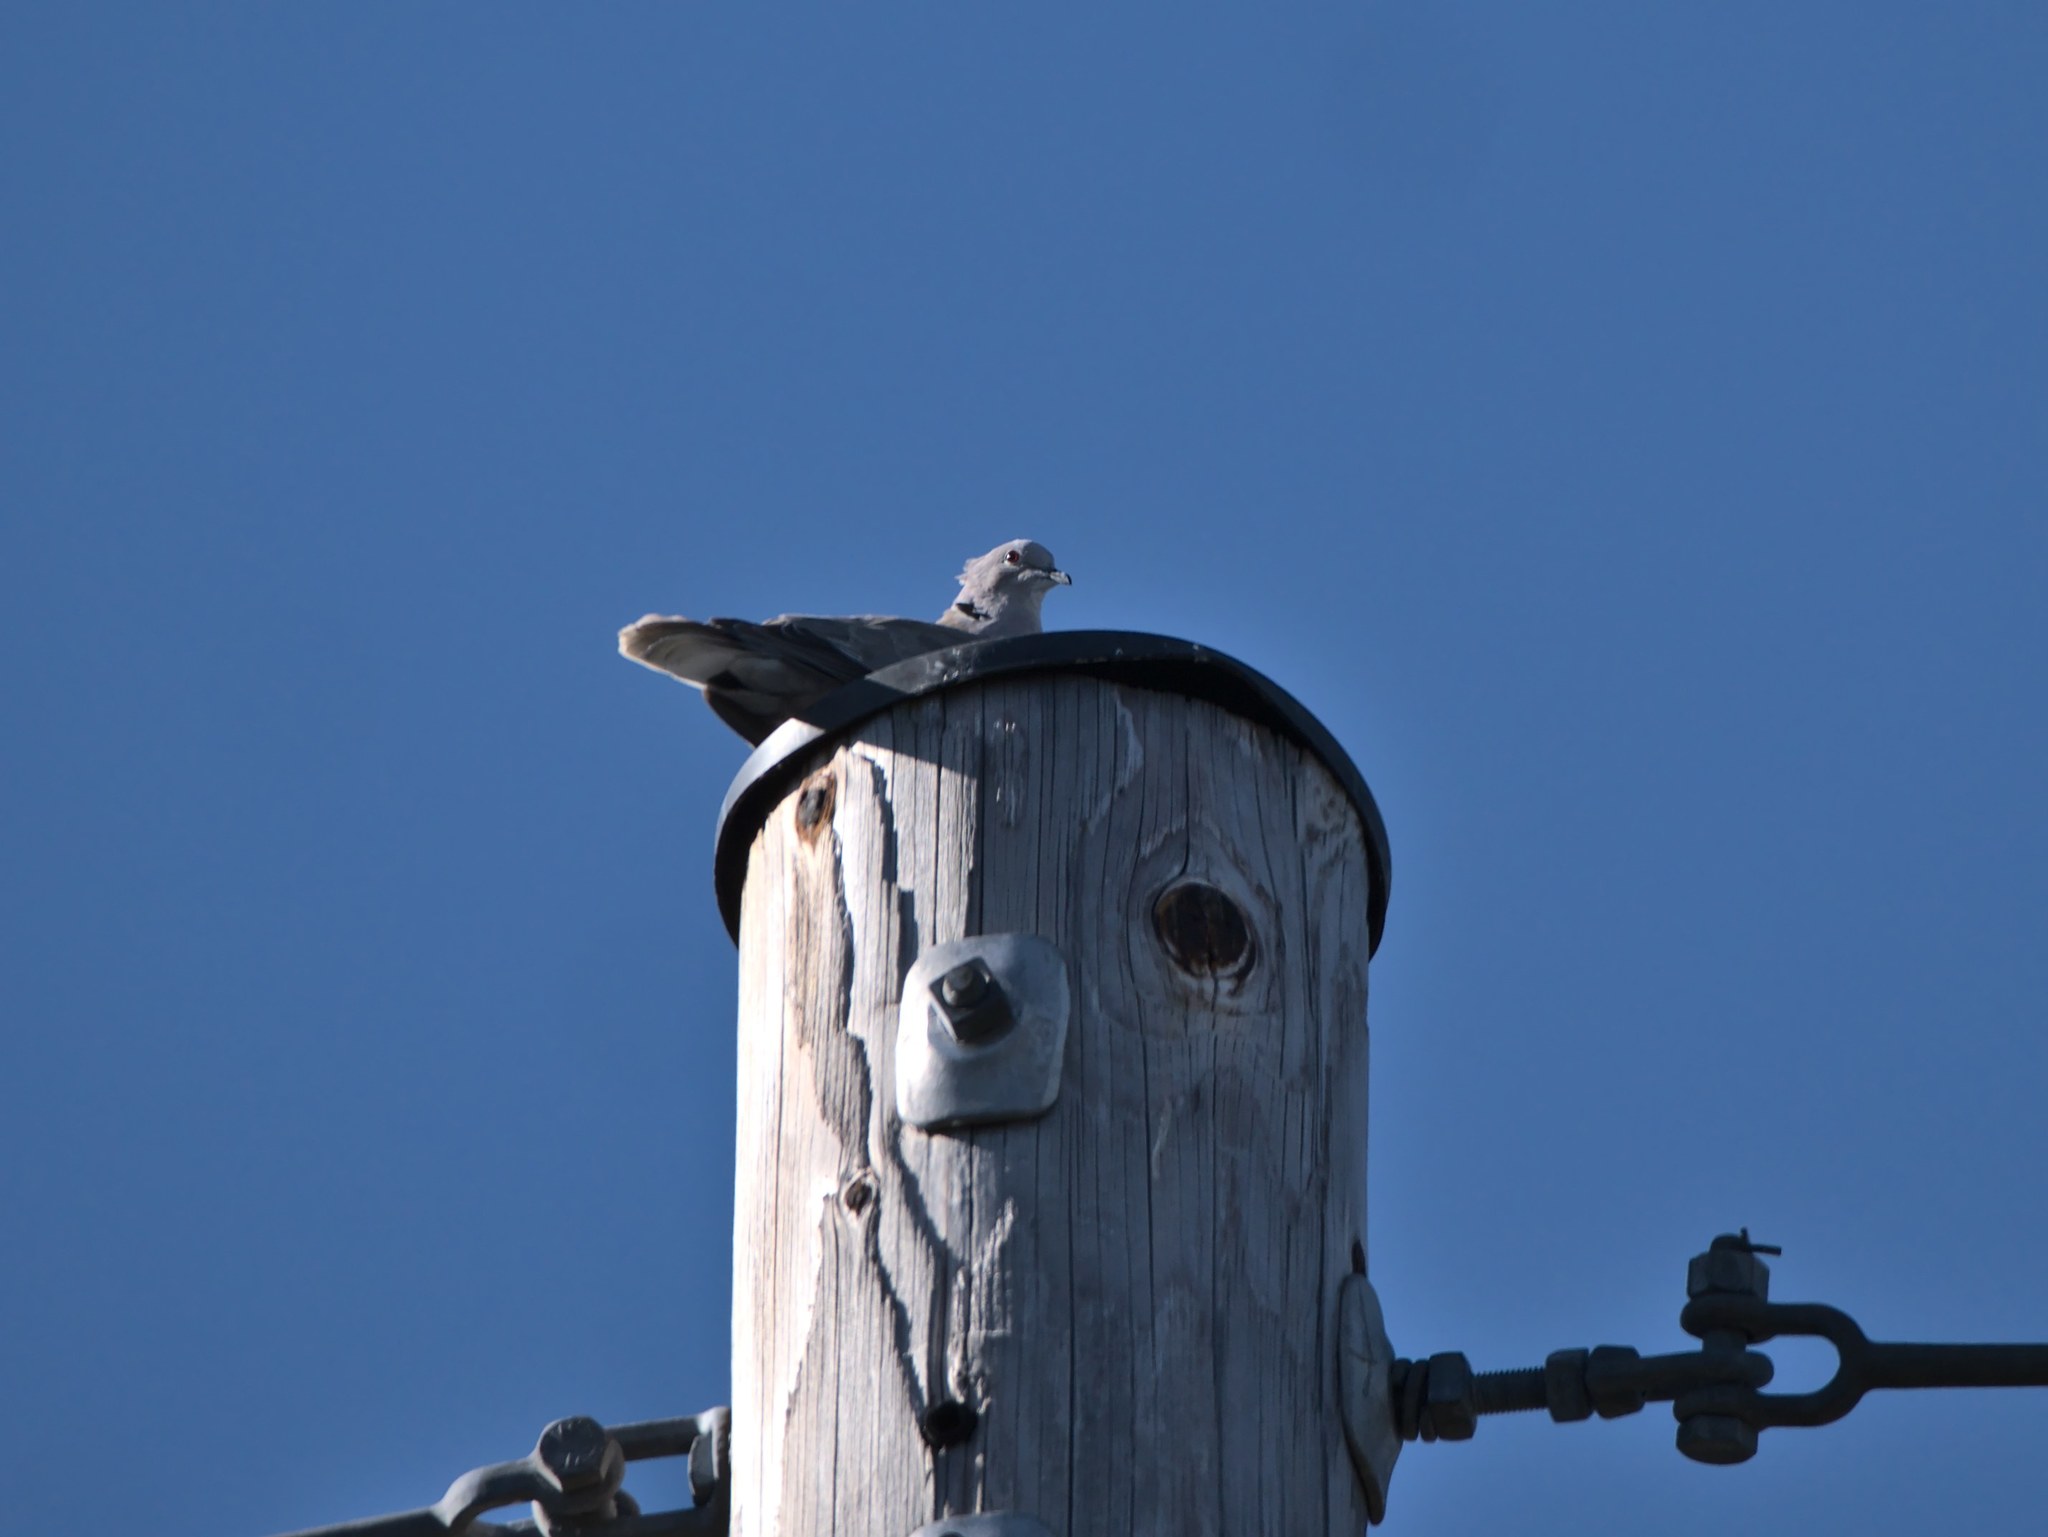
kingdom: Animalia
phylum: Chordata
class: Aves
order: Columbiformes
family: Columbidae
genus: Streptopelia
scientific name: Streptopelia decaocto
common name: Eurasian collared dove
